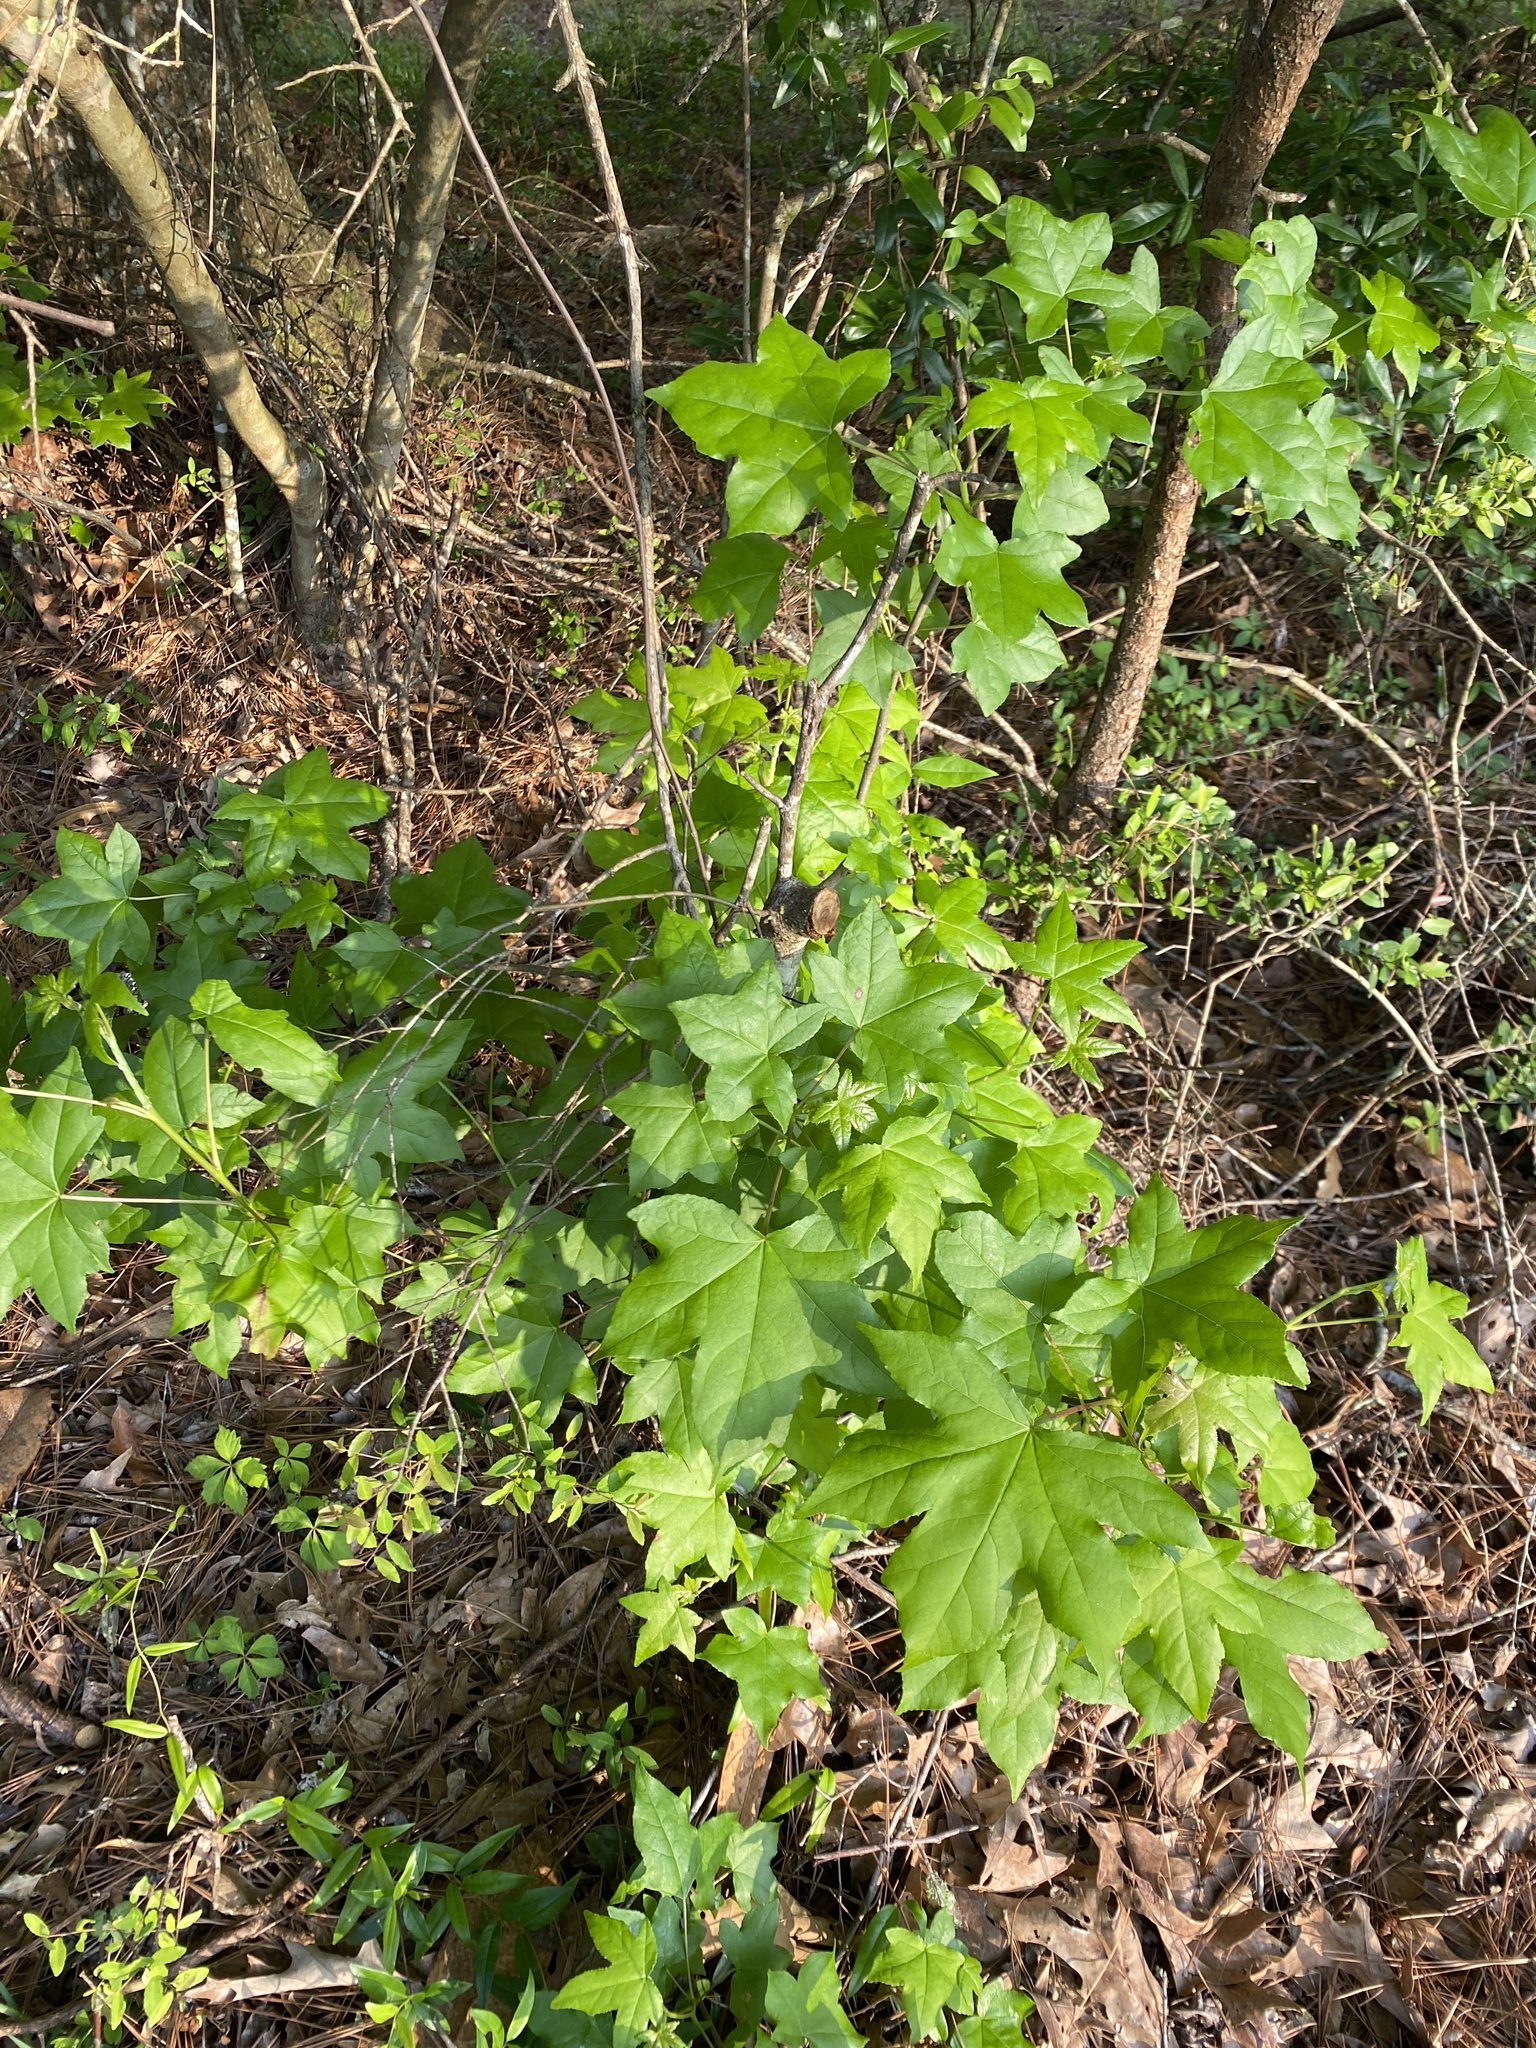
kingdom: Plantae
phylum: Tracheophyta
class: Magnoliopsida
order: Saxifragales
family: Altingiaceae
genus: Liquidambar
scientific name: Liquidambar styraciflua
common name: Sweet gum
